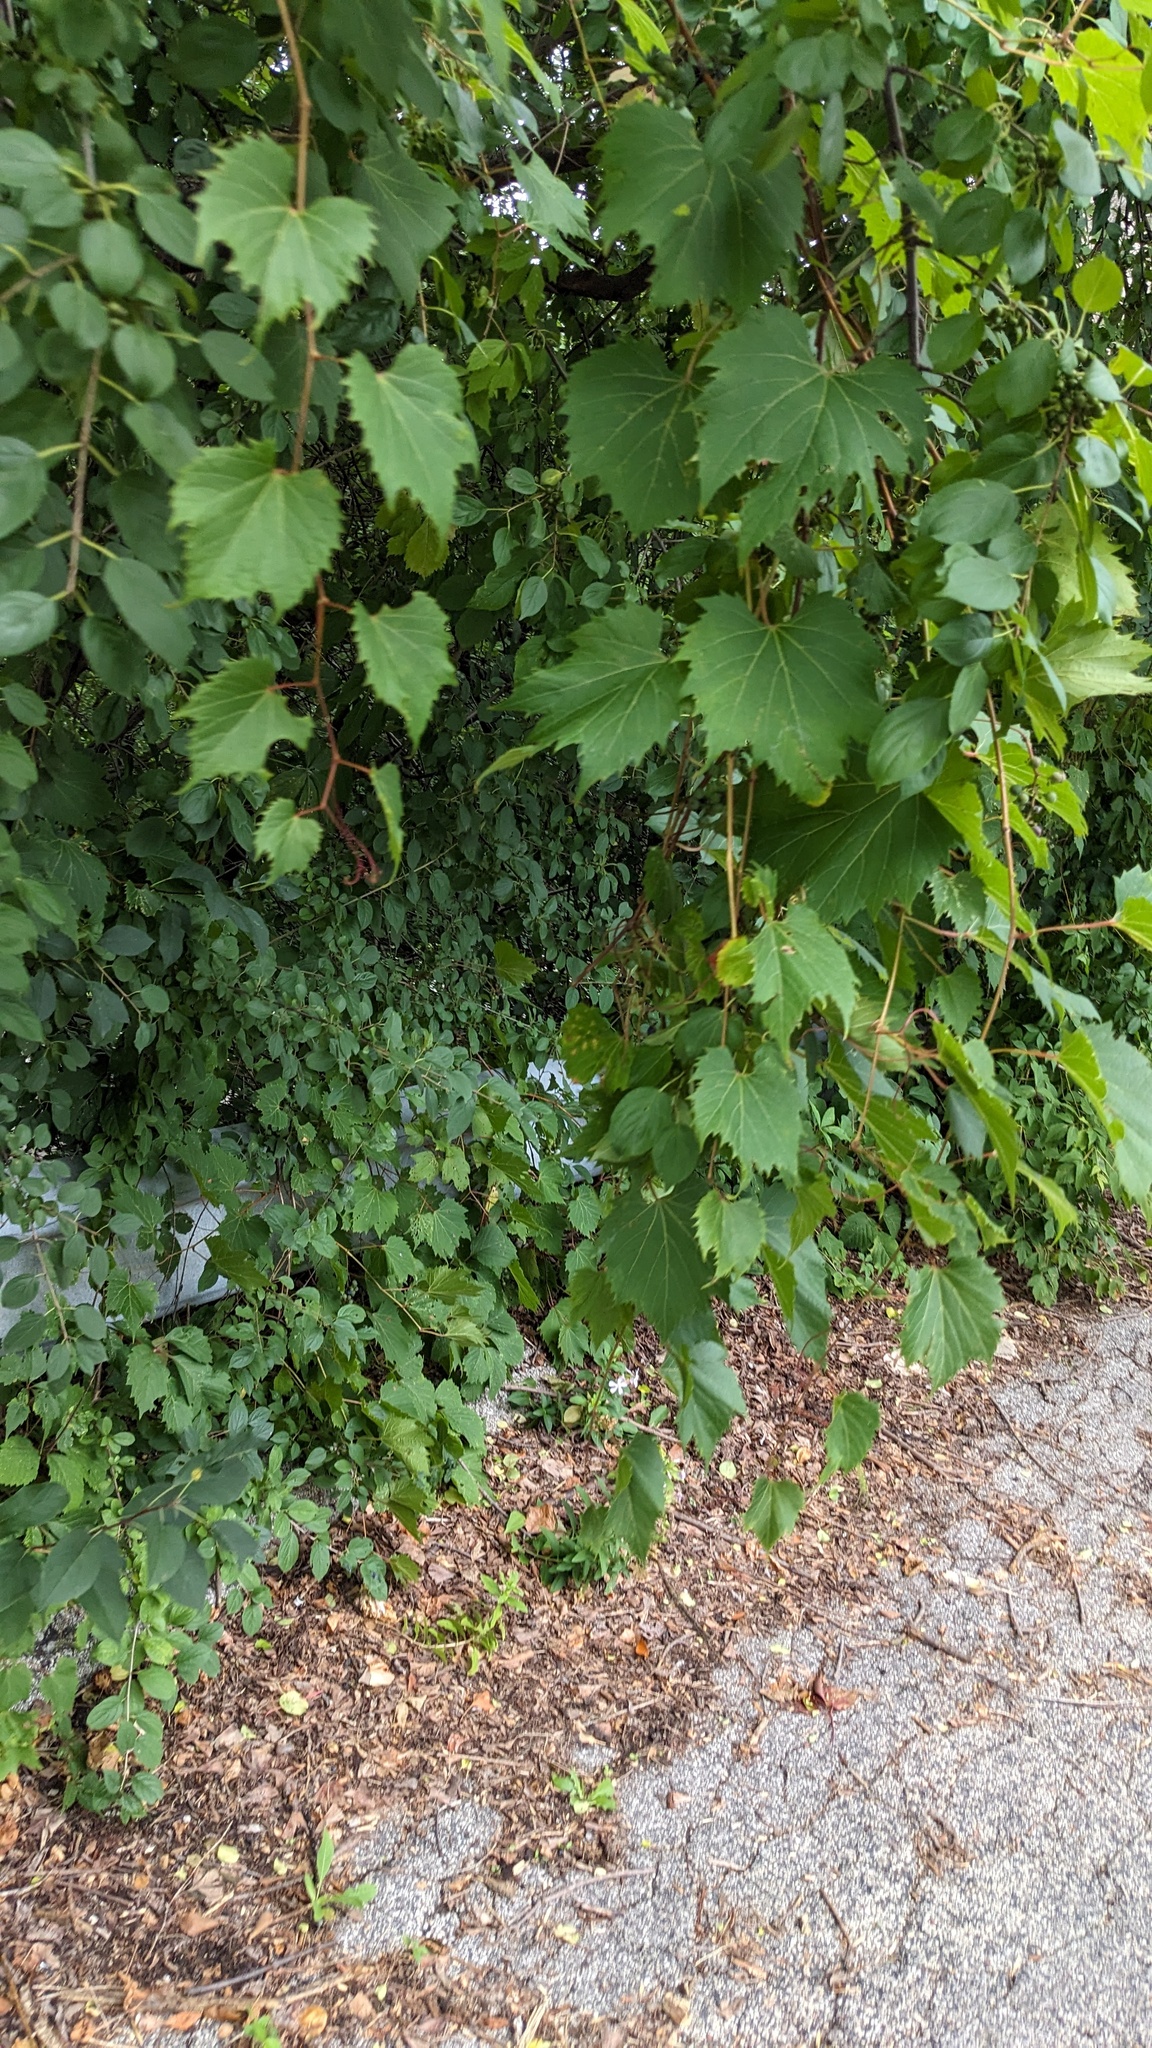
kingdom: Plantae
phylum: Tracheophyta
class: Magnoliopsida
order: Vitales
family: Vitaceae
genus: Vitis
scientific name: Vitis riparia
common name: Frost grape
